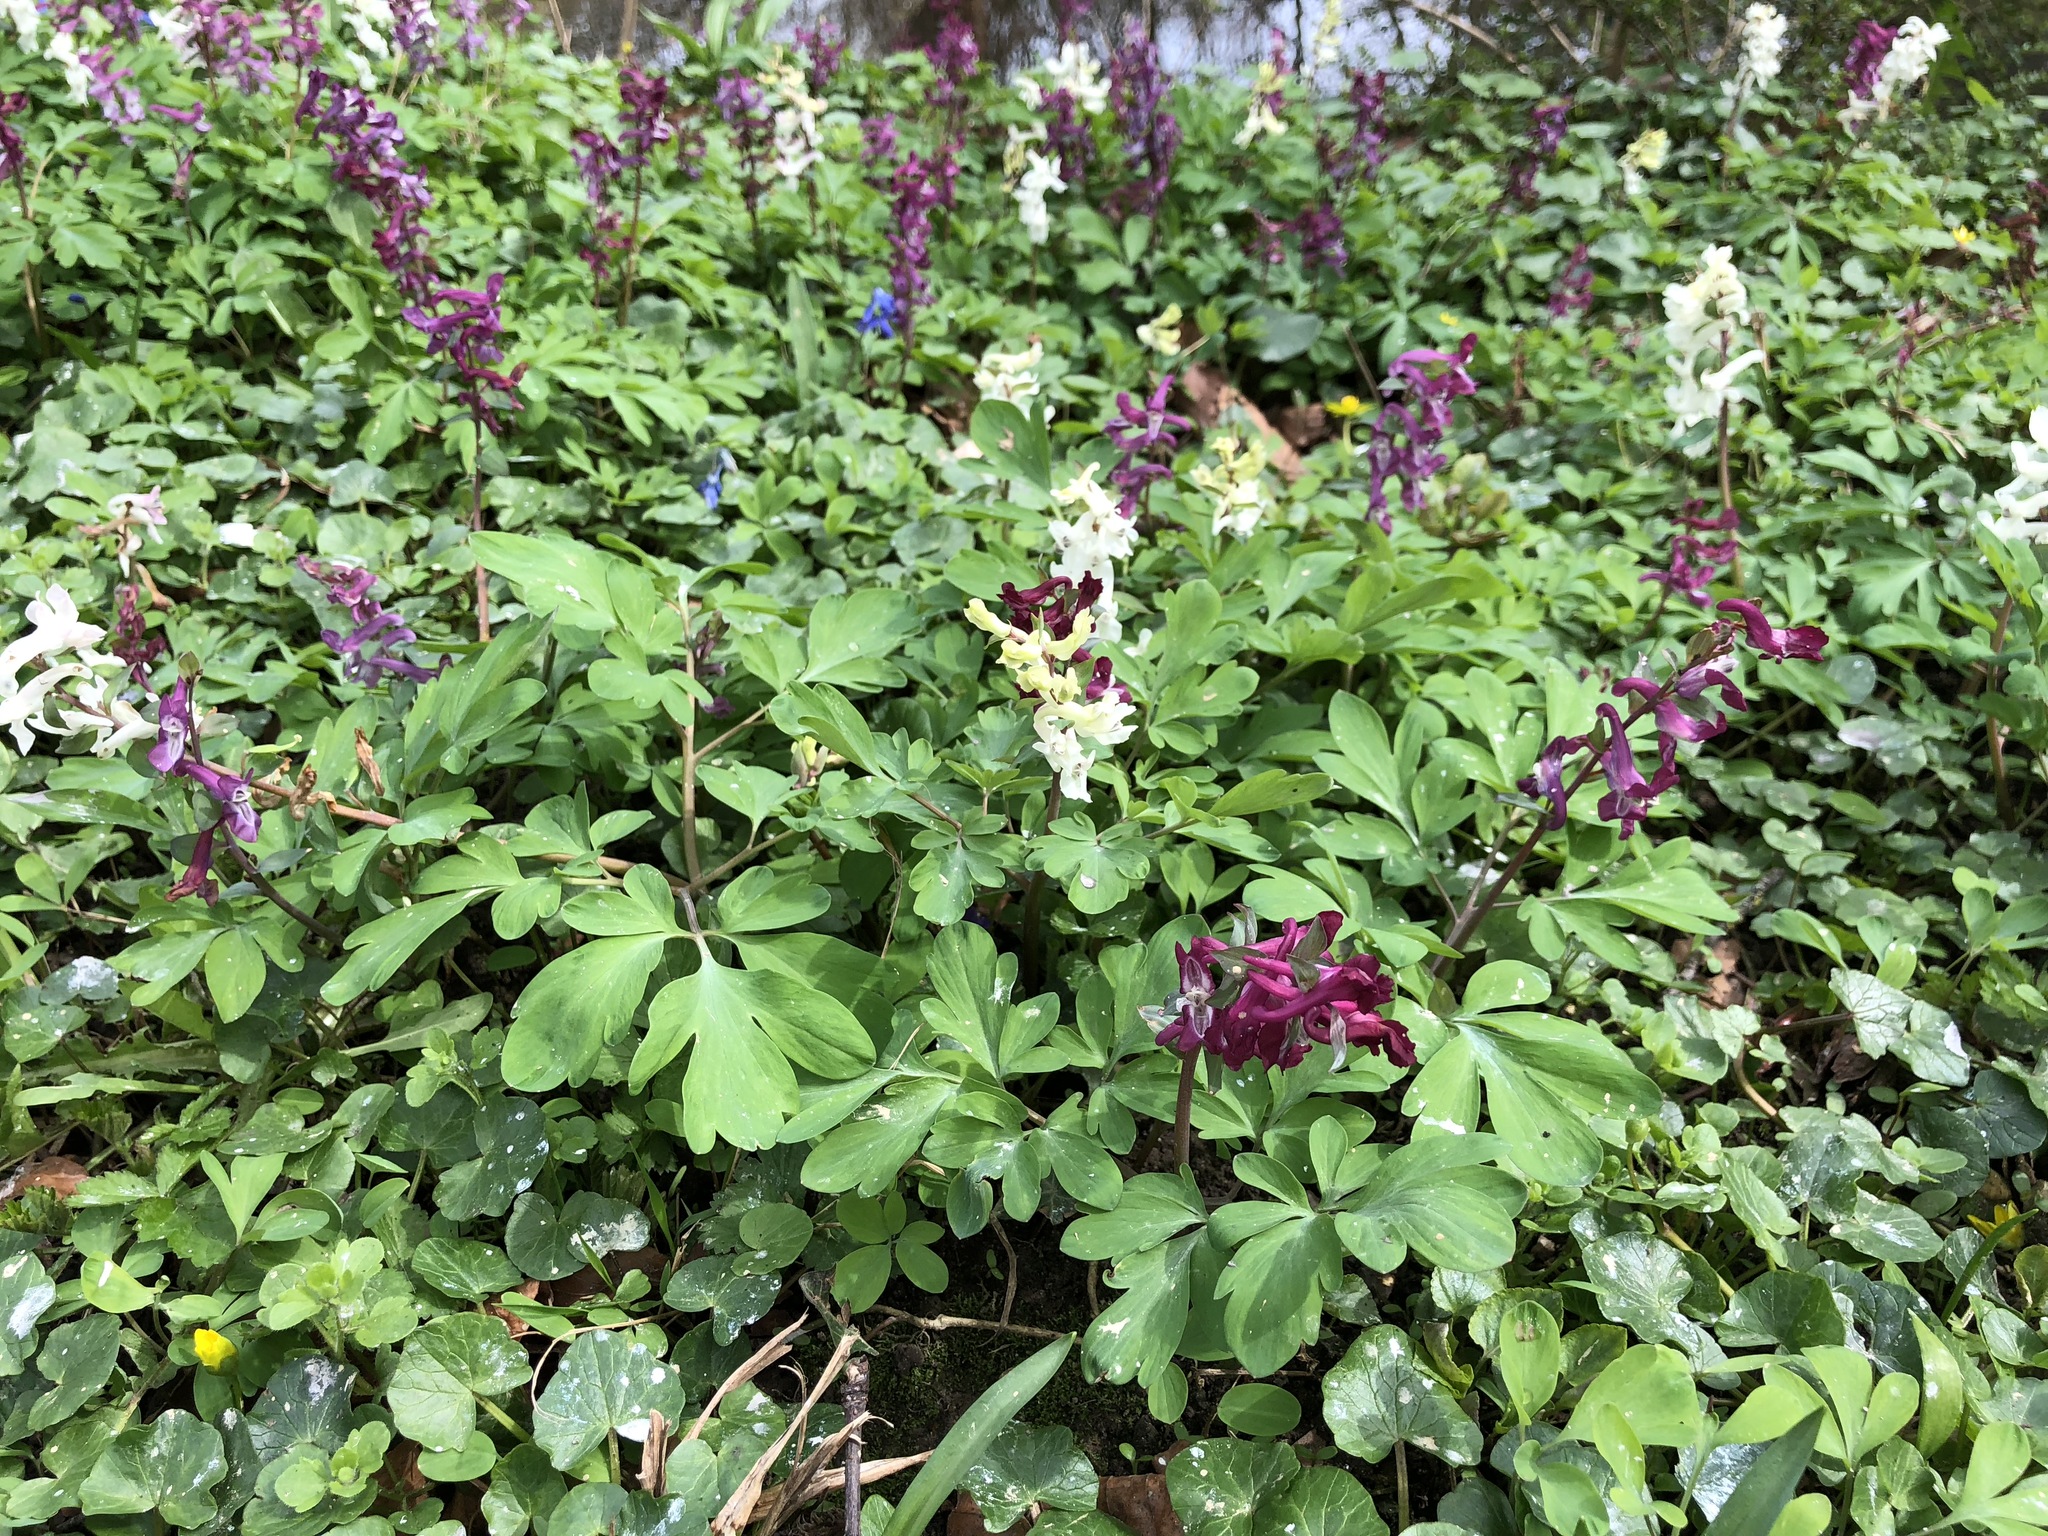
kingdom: Plantae
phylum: Tracheophyta
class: Magnoliopsida
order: Ranunculales
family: Papaveraceae
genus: Corydalis
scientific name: Corydalis cava
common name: Hollowroot
